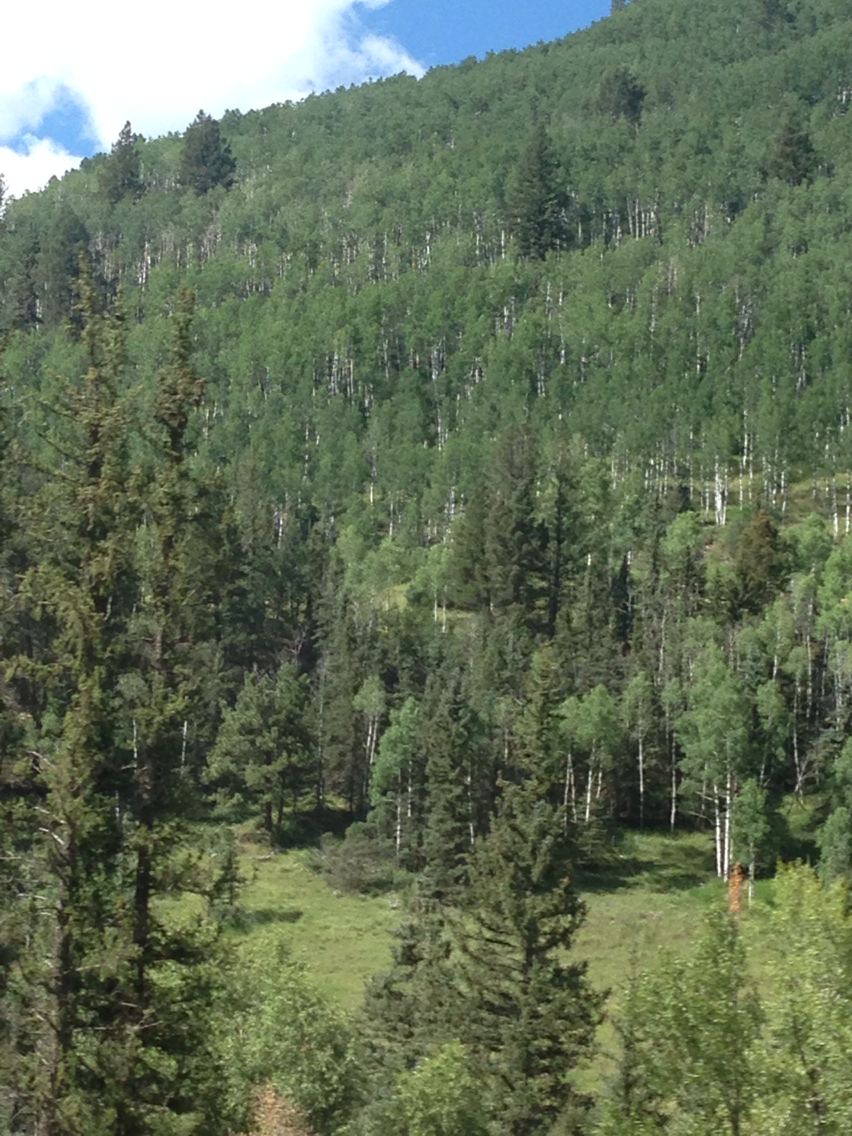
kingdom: Plantae
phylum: Tracheophyta
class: Magnoliopsida
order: Malpighiales
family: Salicaceae
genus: Populus
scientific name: Populus tremuloides
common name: Quaking aspen
